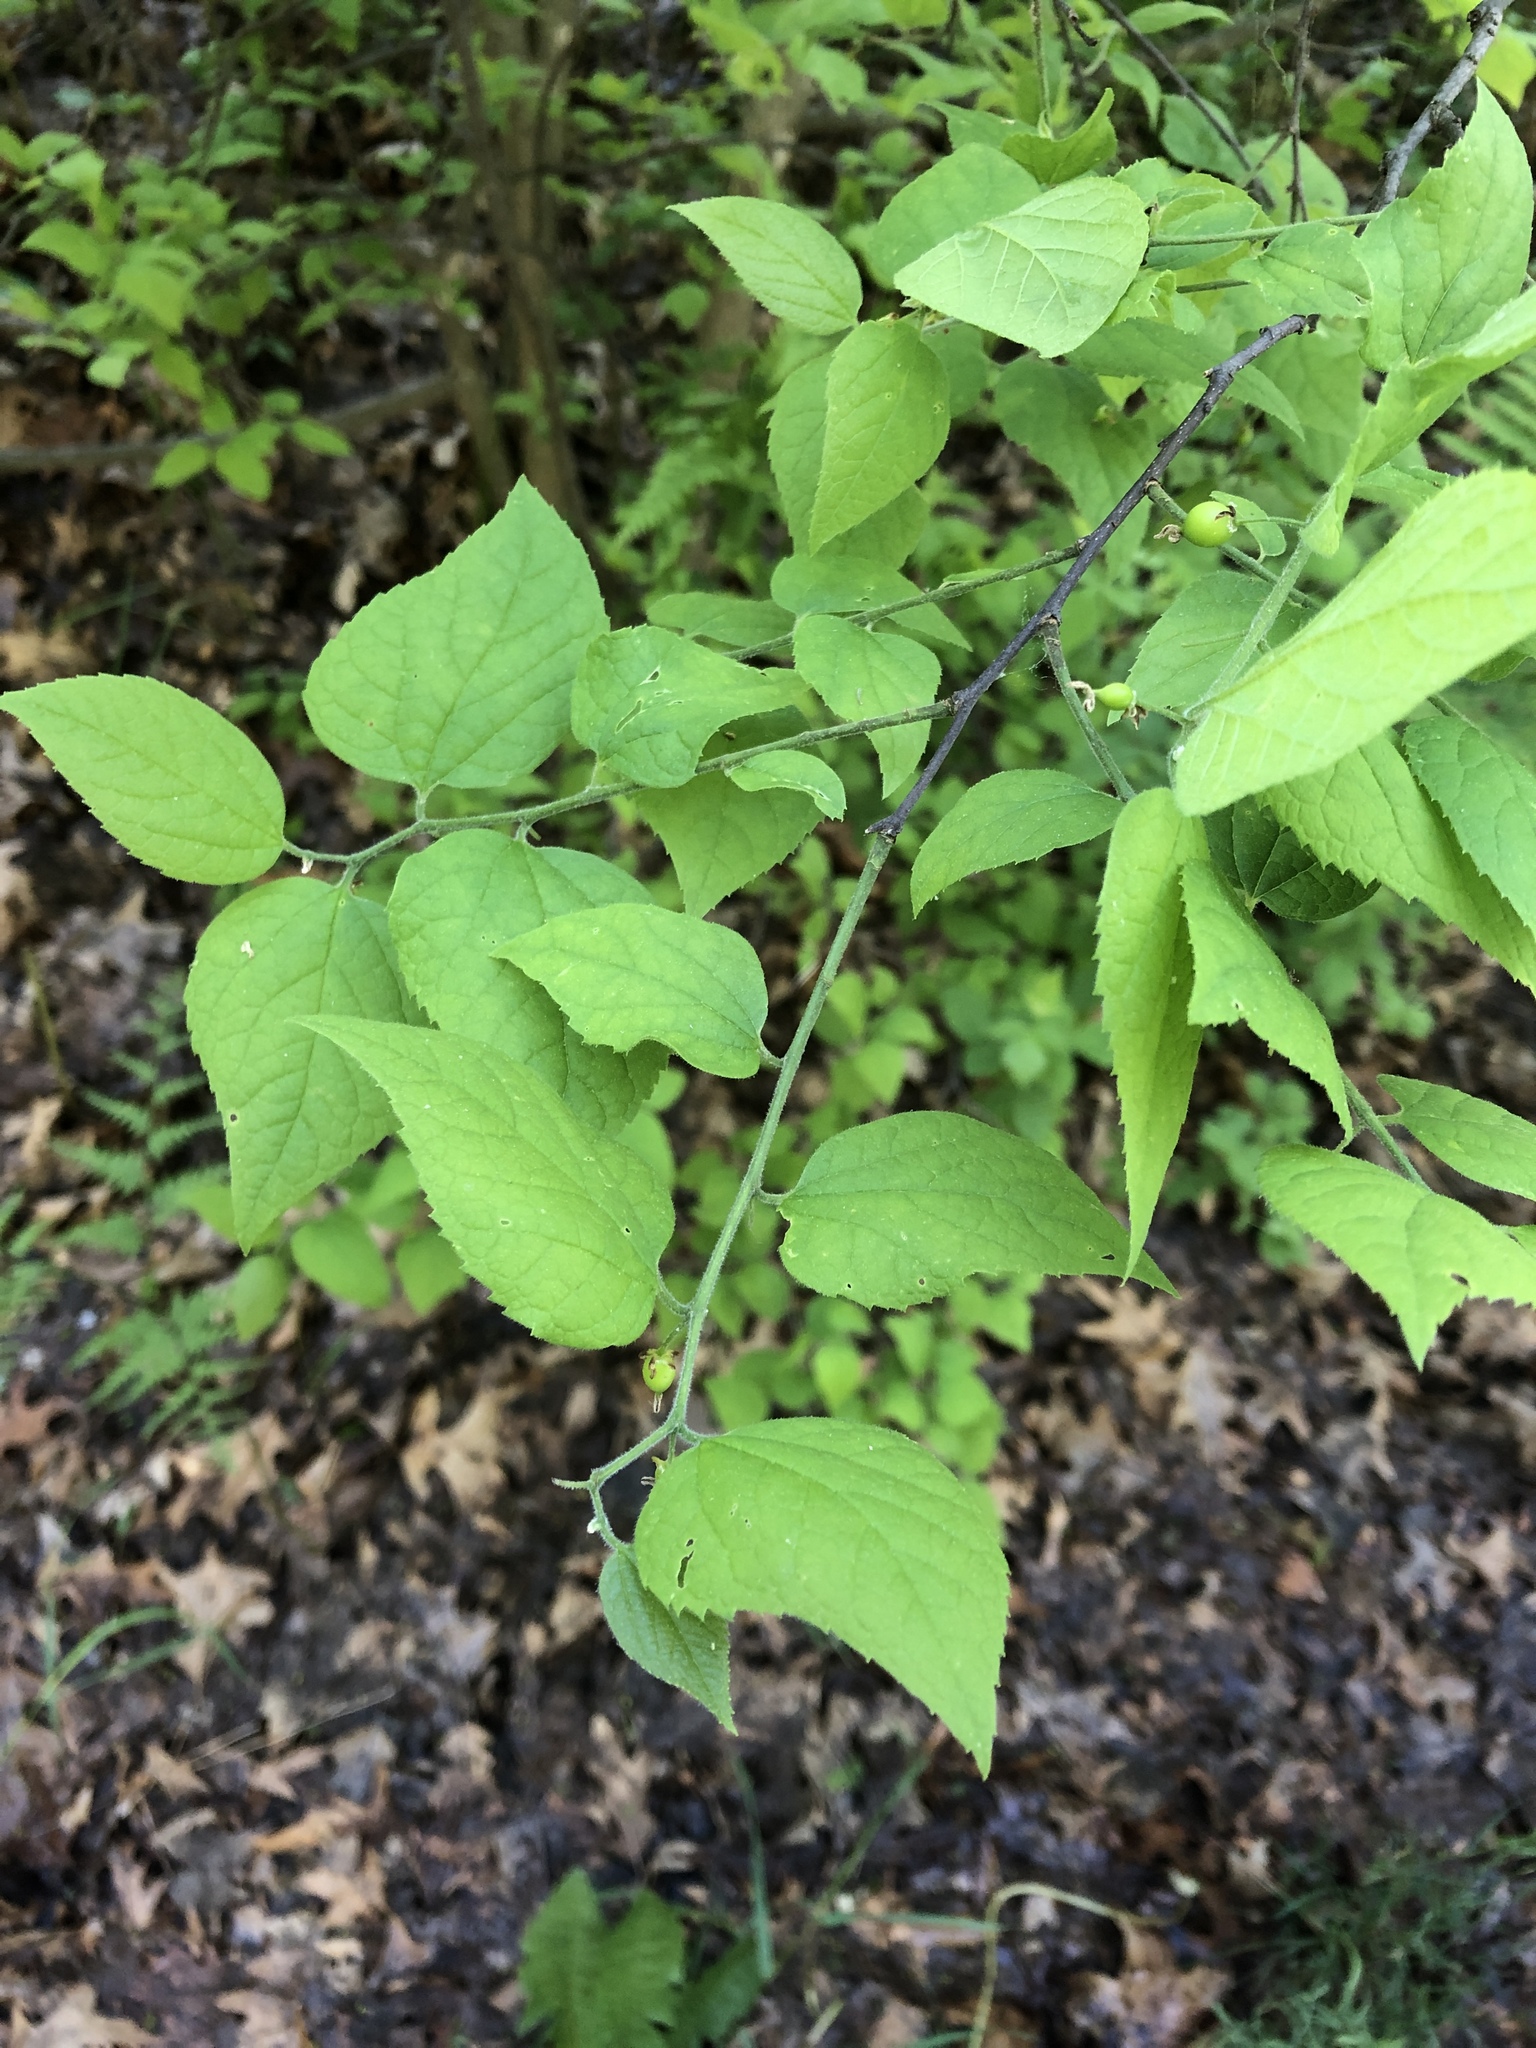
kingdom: Plantae
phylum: Tracheophyta
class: Magnoliopsida
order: Rosales
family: Cannabaceae
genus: Celtis
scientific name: Celtis tenuifolia
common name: Georgia hackberry
